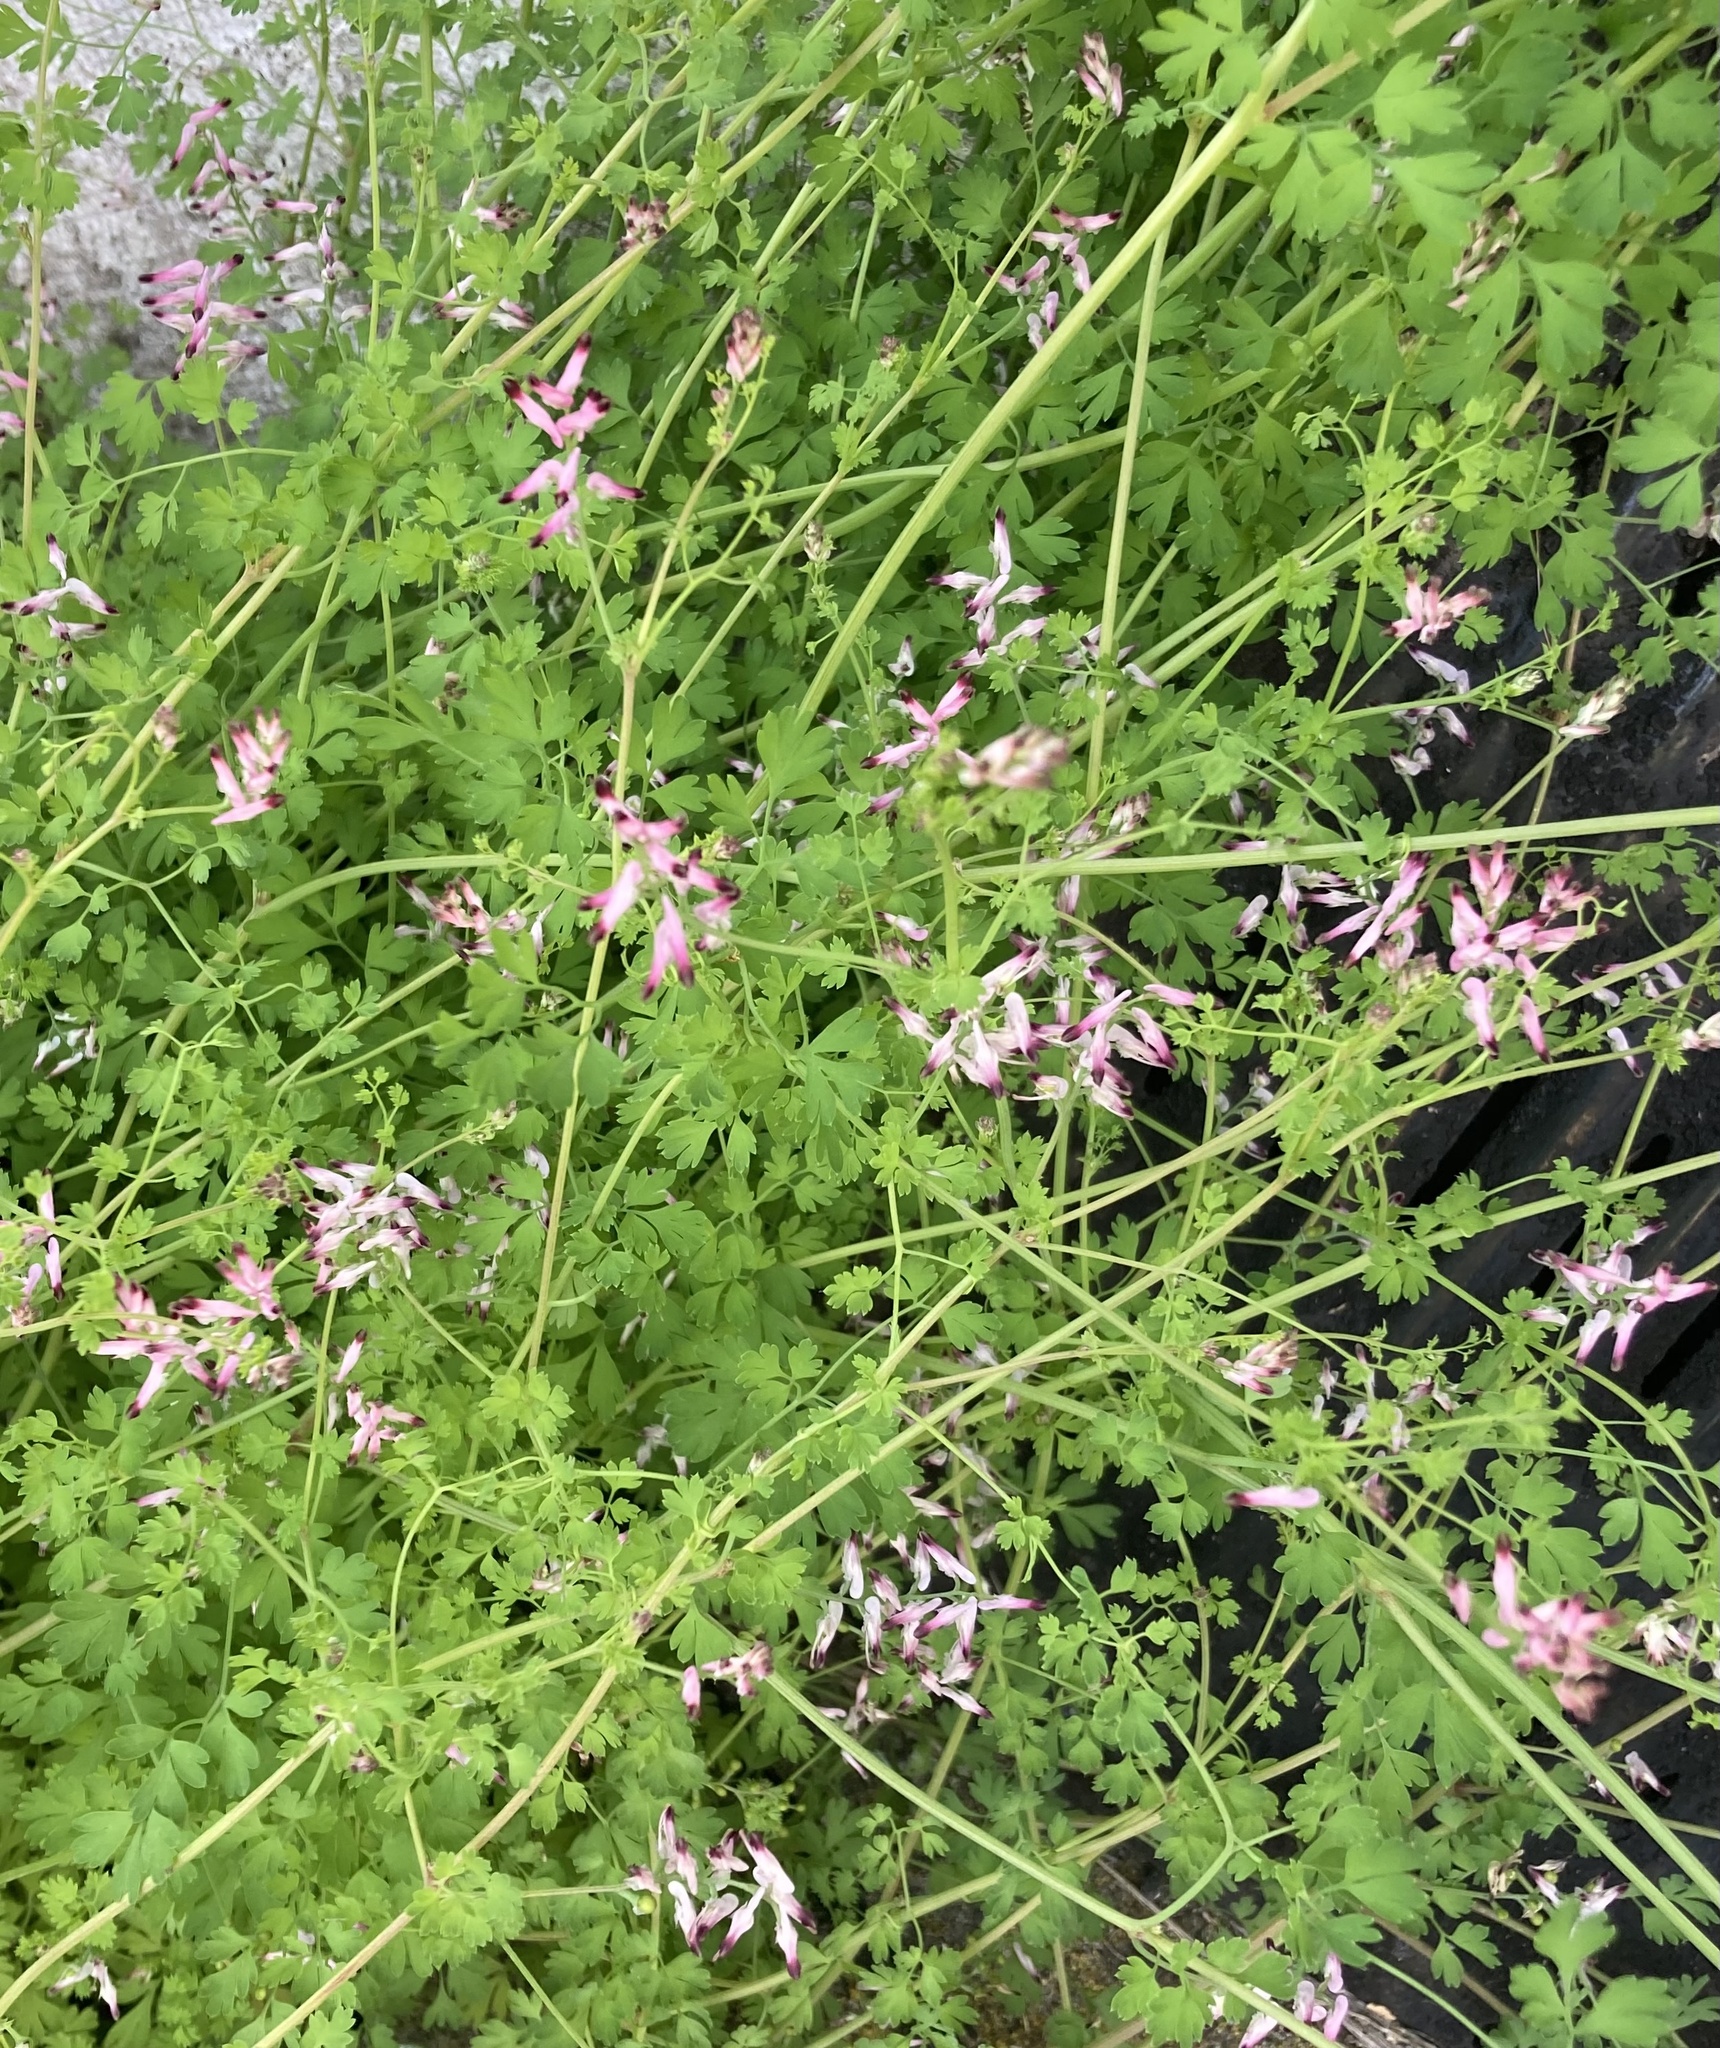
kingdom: Plantae
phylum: Tracheophyta
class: Magnoliopsida
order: Ranunculales
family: Papaveraceae
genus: Fumaria
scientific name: Fumaria muralis
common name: Common ramping-fumitory
